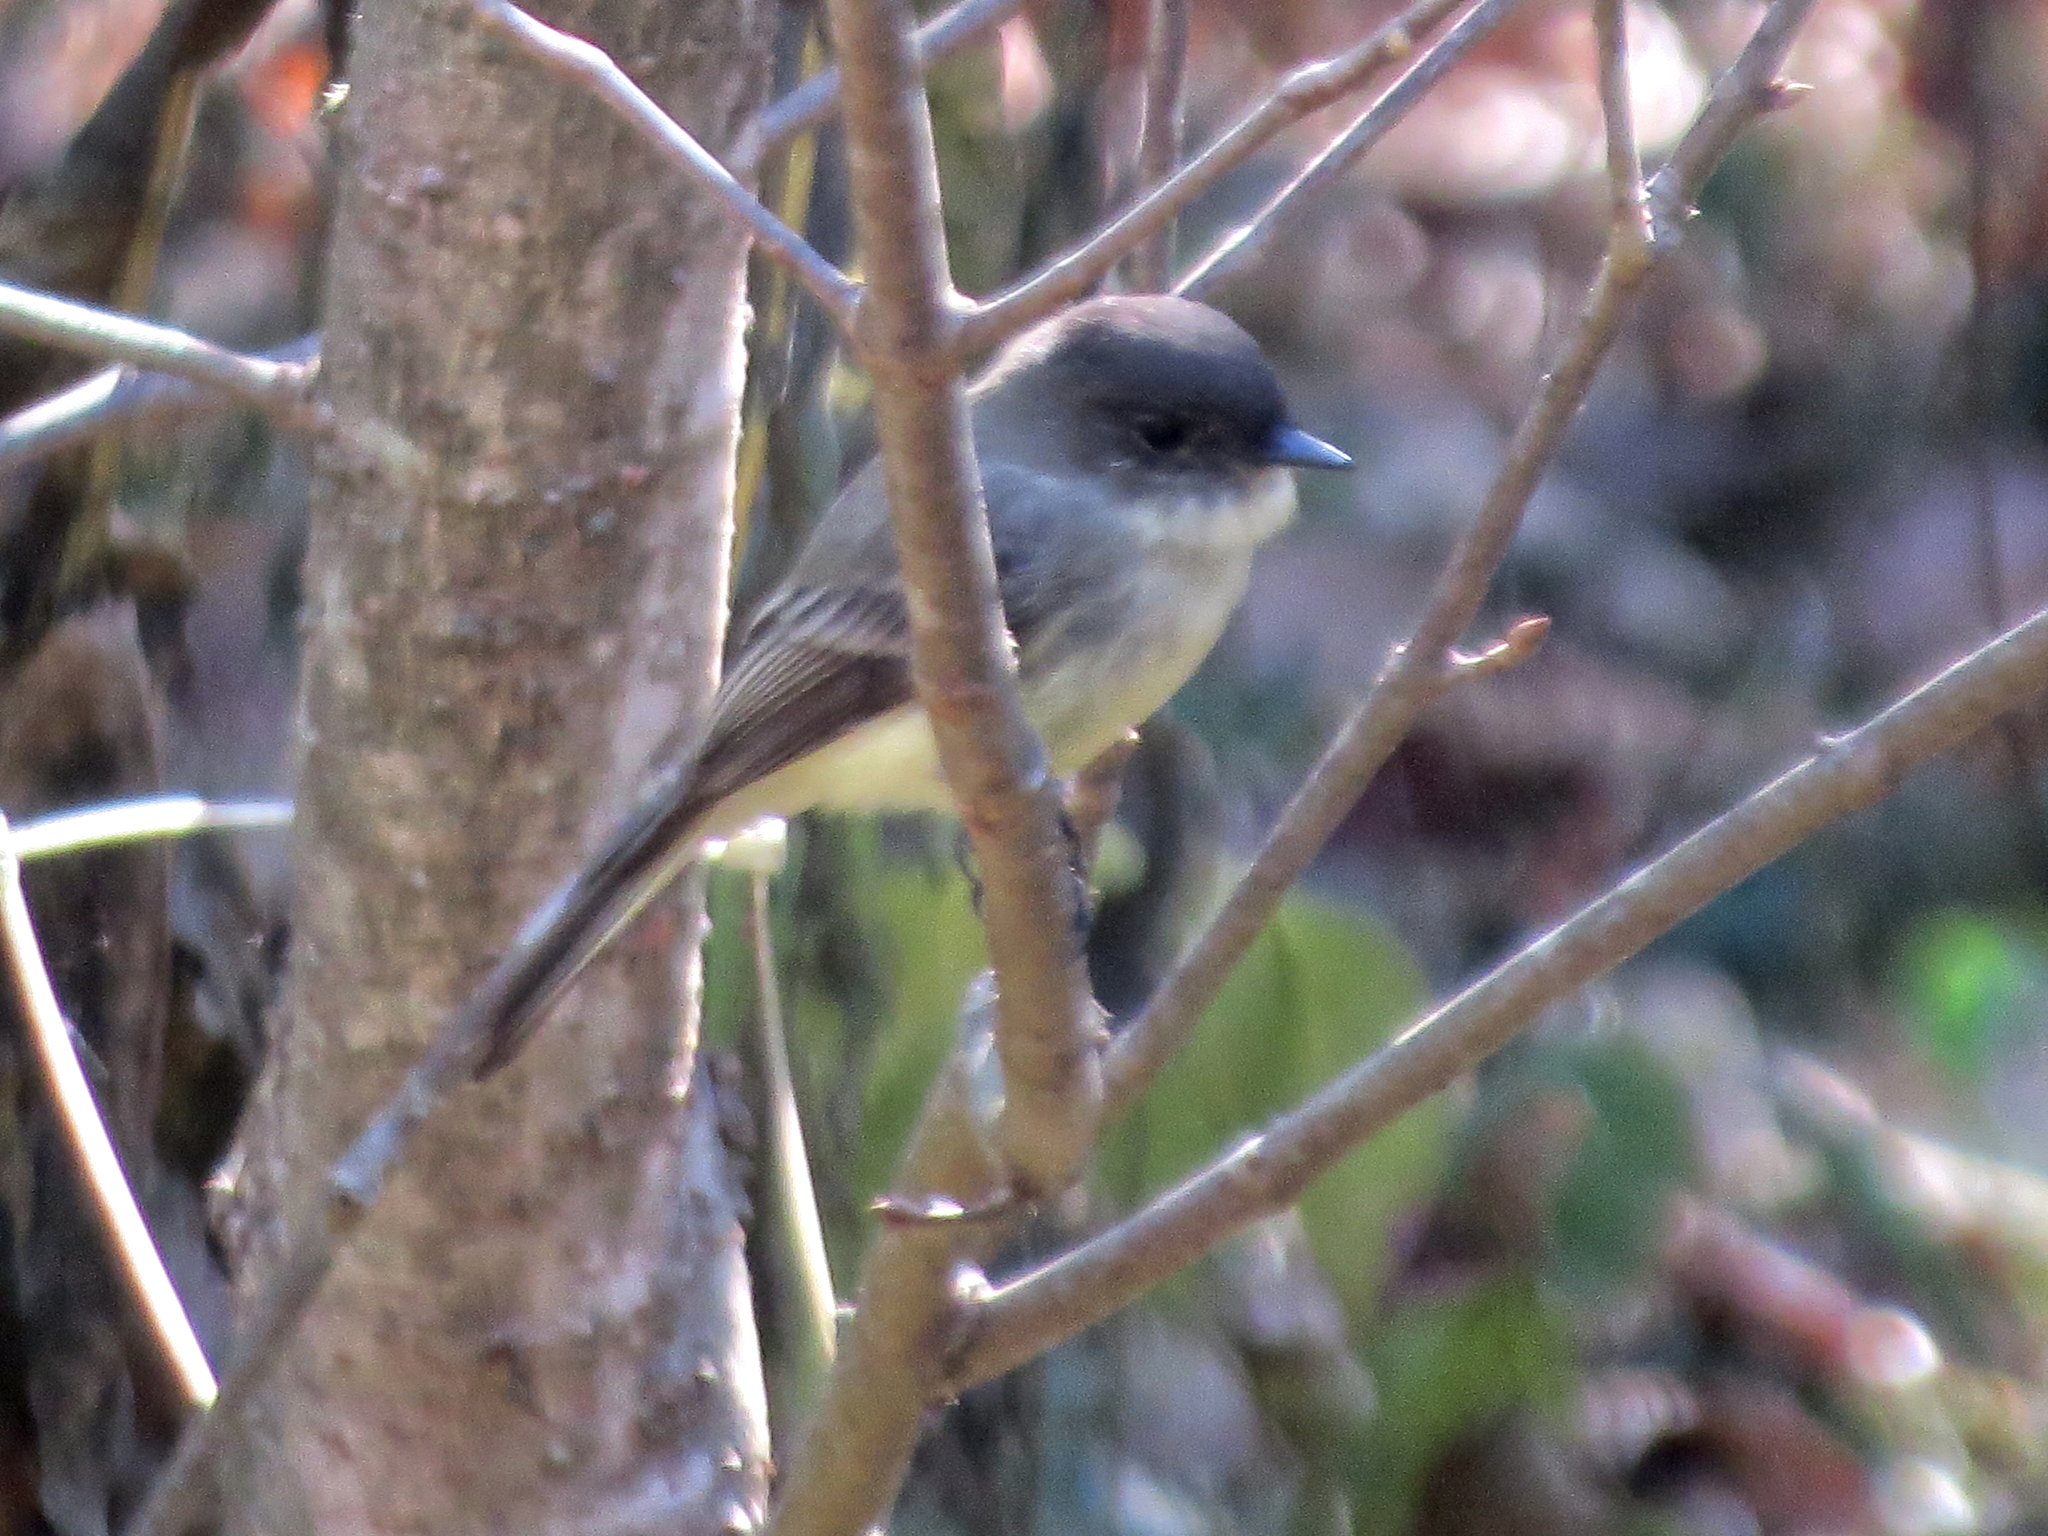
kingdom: Animalia
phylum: Chordata
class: Aves
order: Passeriformes
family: Tyrannidae
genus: Sayornis
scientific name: Sayornis phoebe
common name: Eastern phoebe
